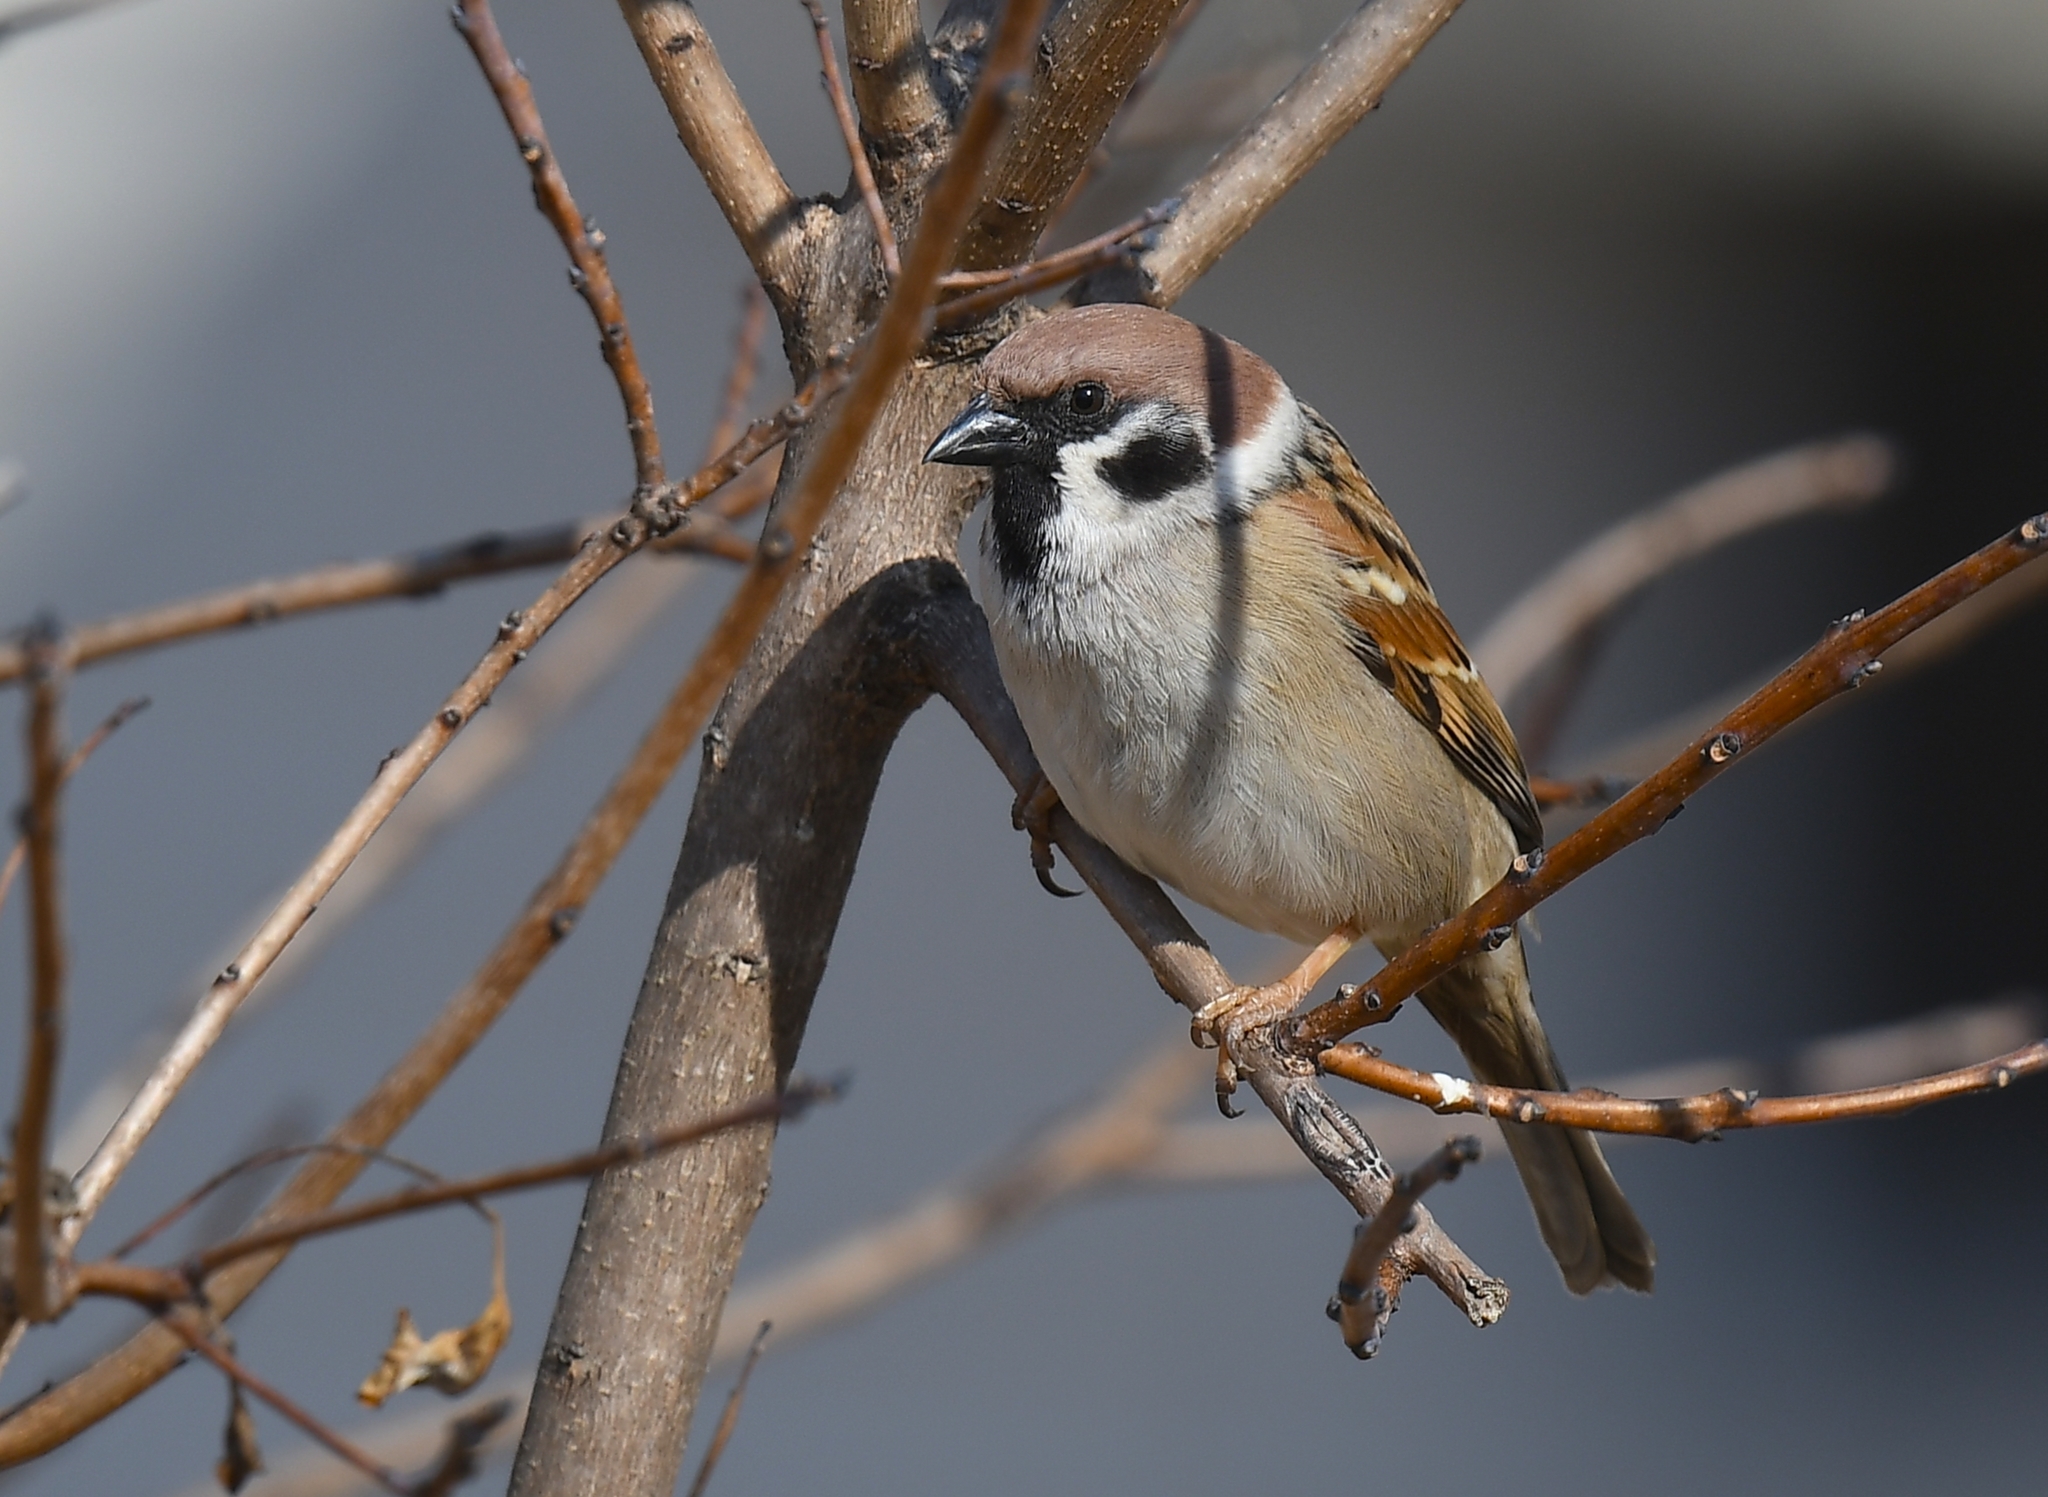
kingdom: Animalia
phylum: Chordata
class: Aves
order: Passeriformes
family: Passeridae
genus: Passer
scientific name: Passer montanus
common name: Eurasian tree sparrow
